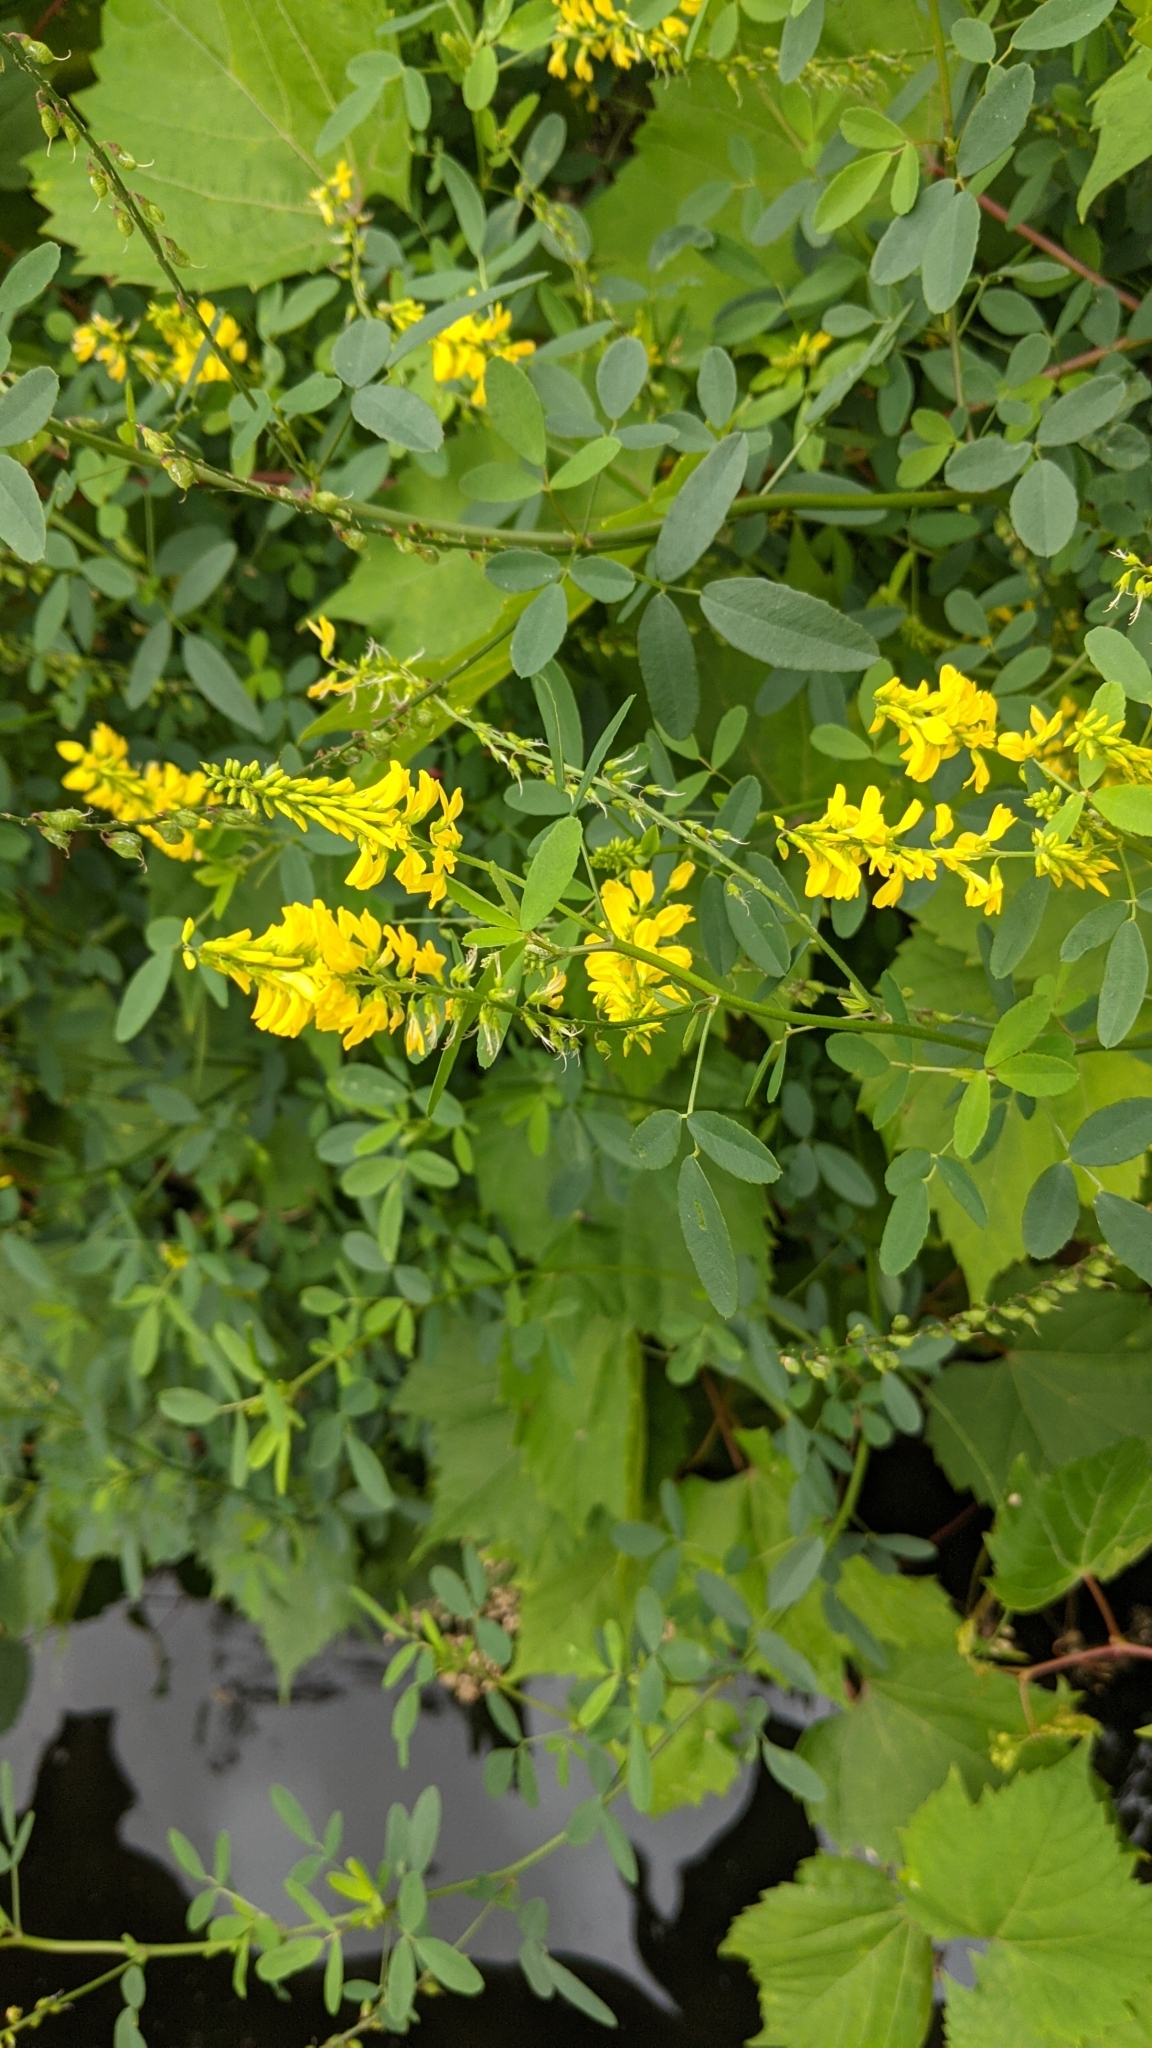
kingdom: Plantae
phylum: Tracheophyta
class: Magnoliopsida
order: Fabales
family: Fabaceae
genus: Melilotus
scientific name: Melilotus officinalis
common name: Sweetclover
